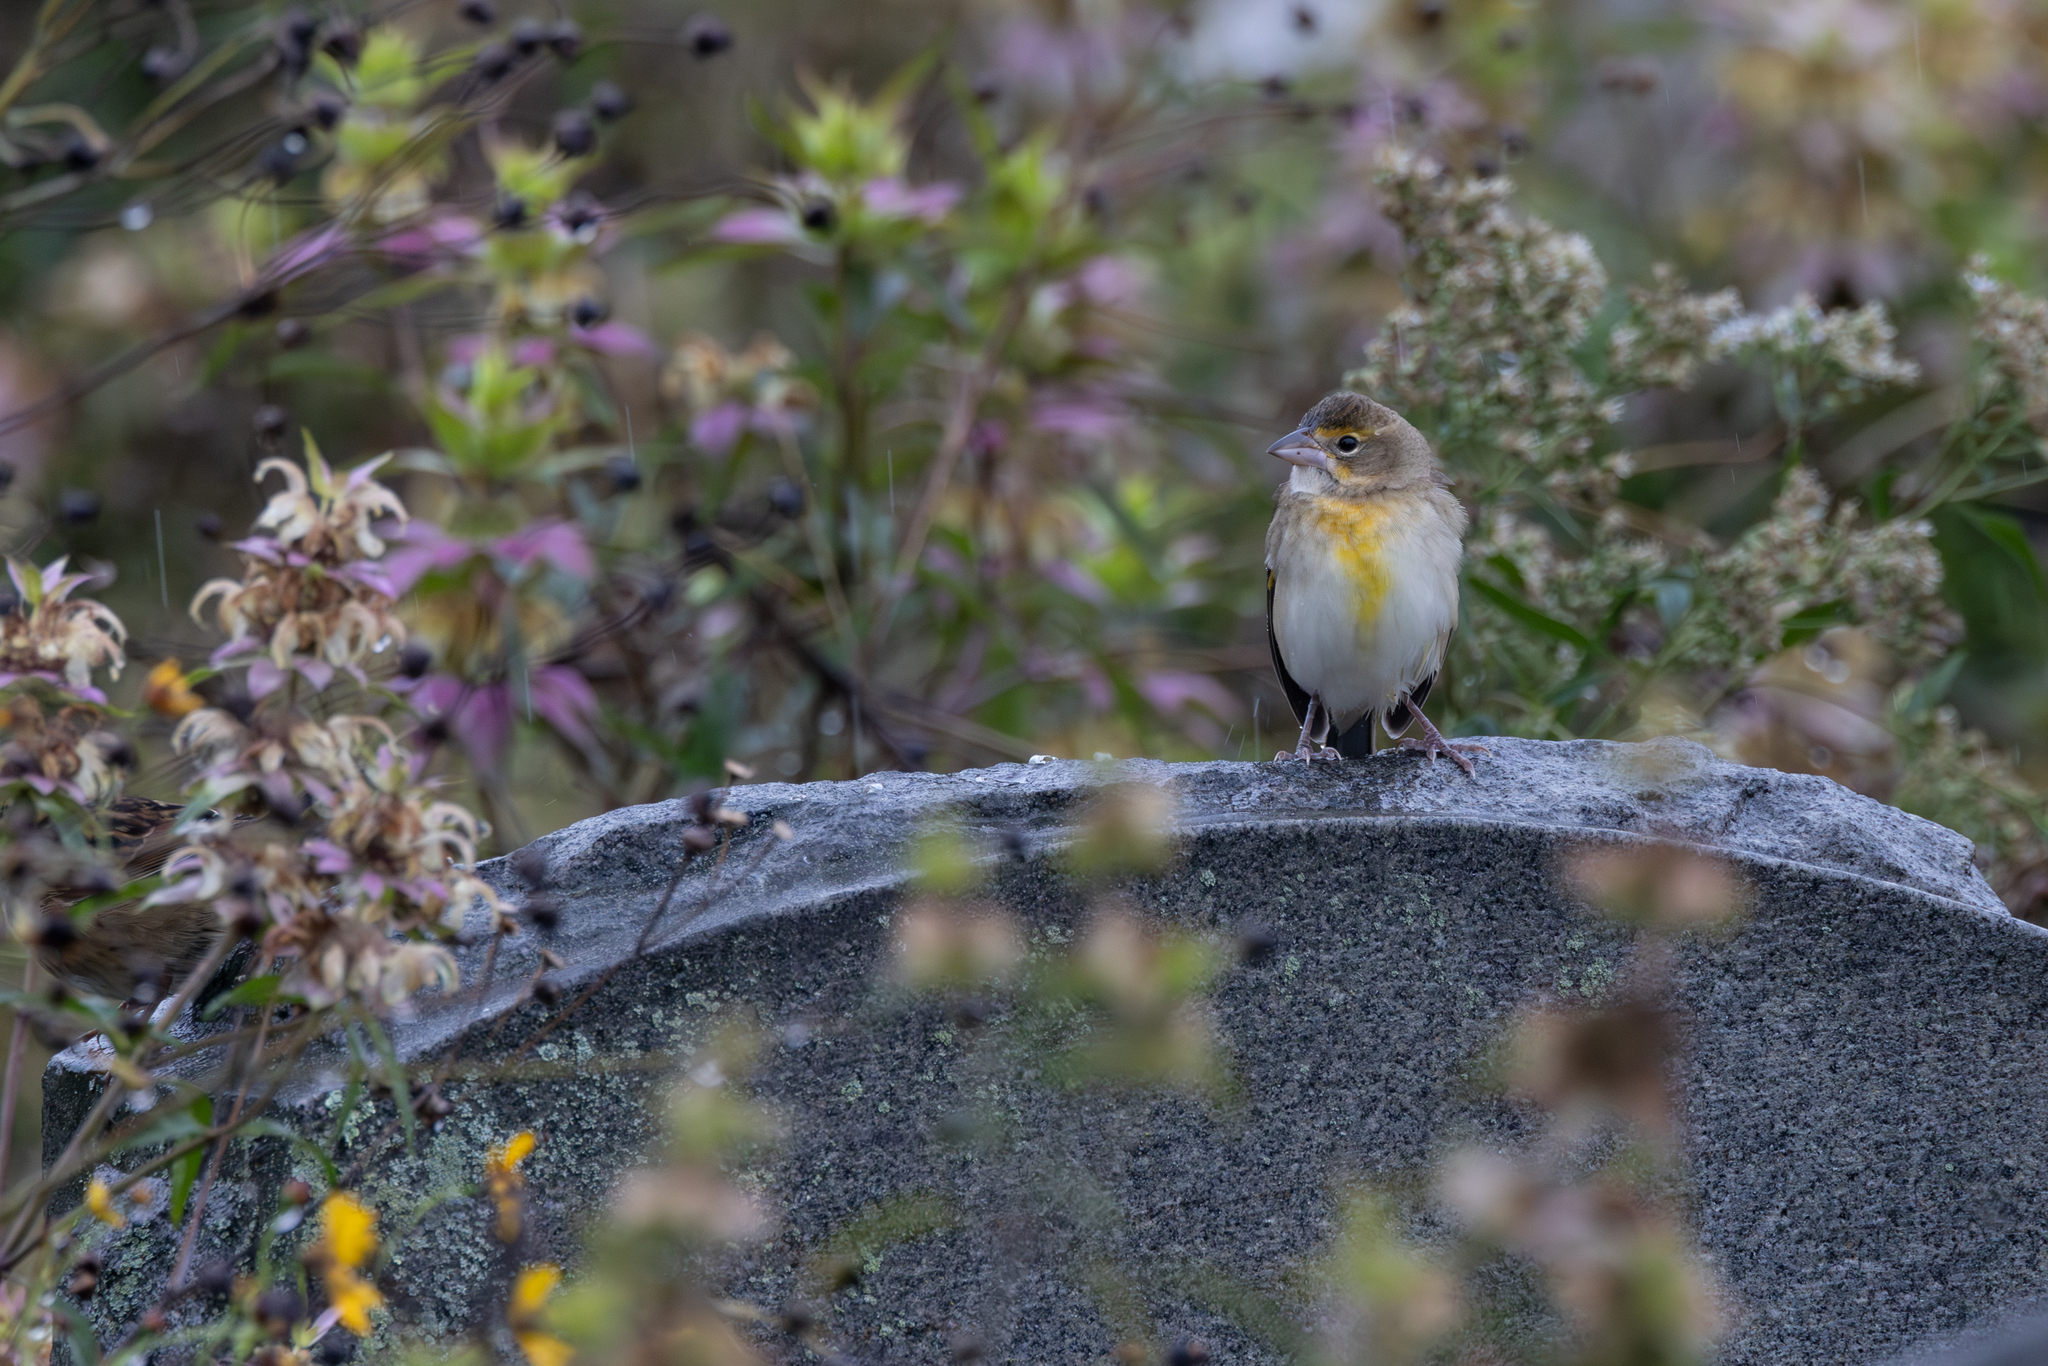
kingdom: Animalia
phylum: Chordata
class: Aves
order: Passeriformes
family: Cardinalidae
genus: Spiza
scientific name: Spiza americana
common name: Dickcissel
